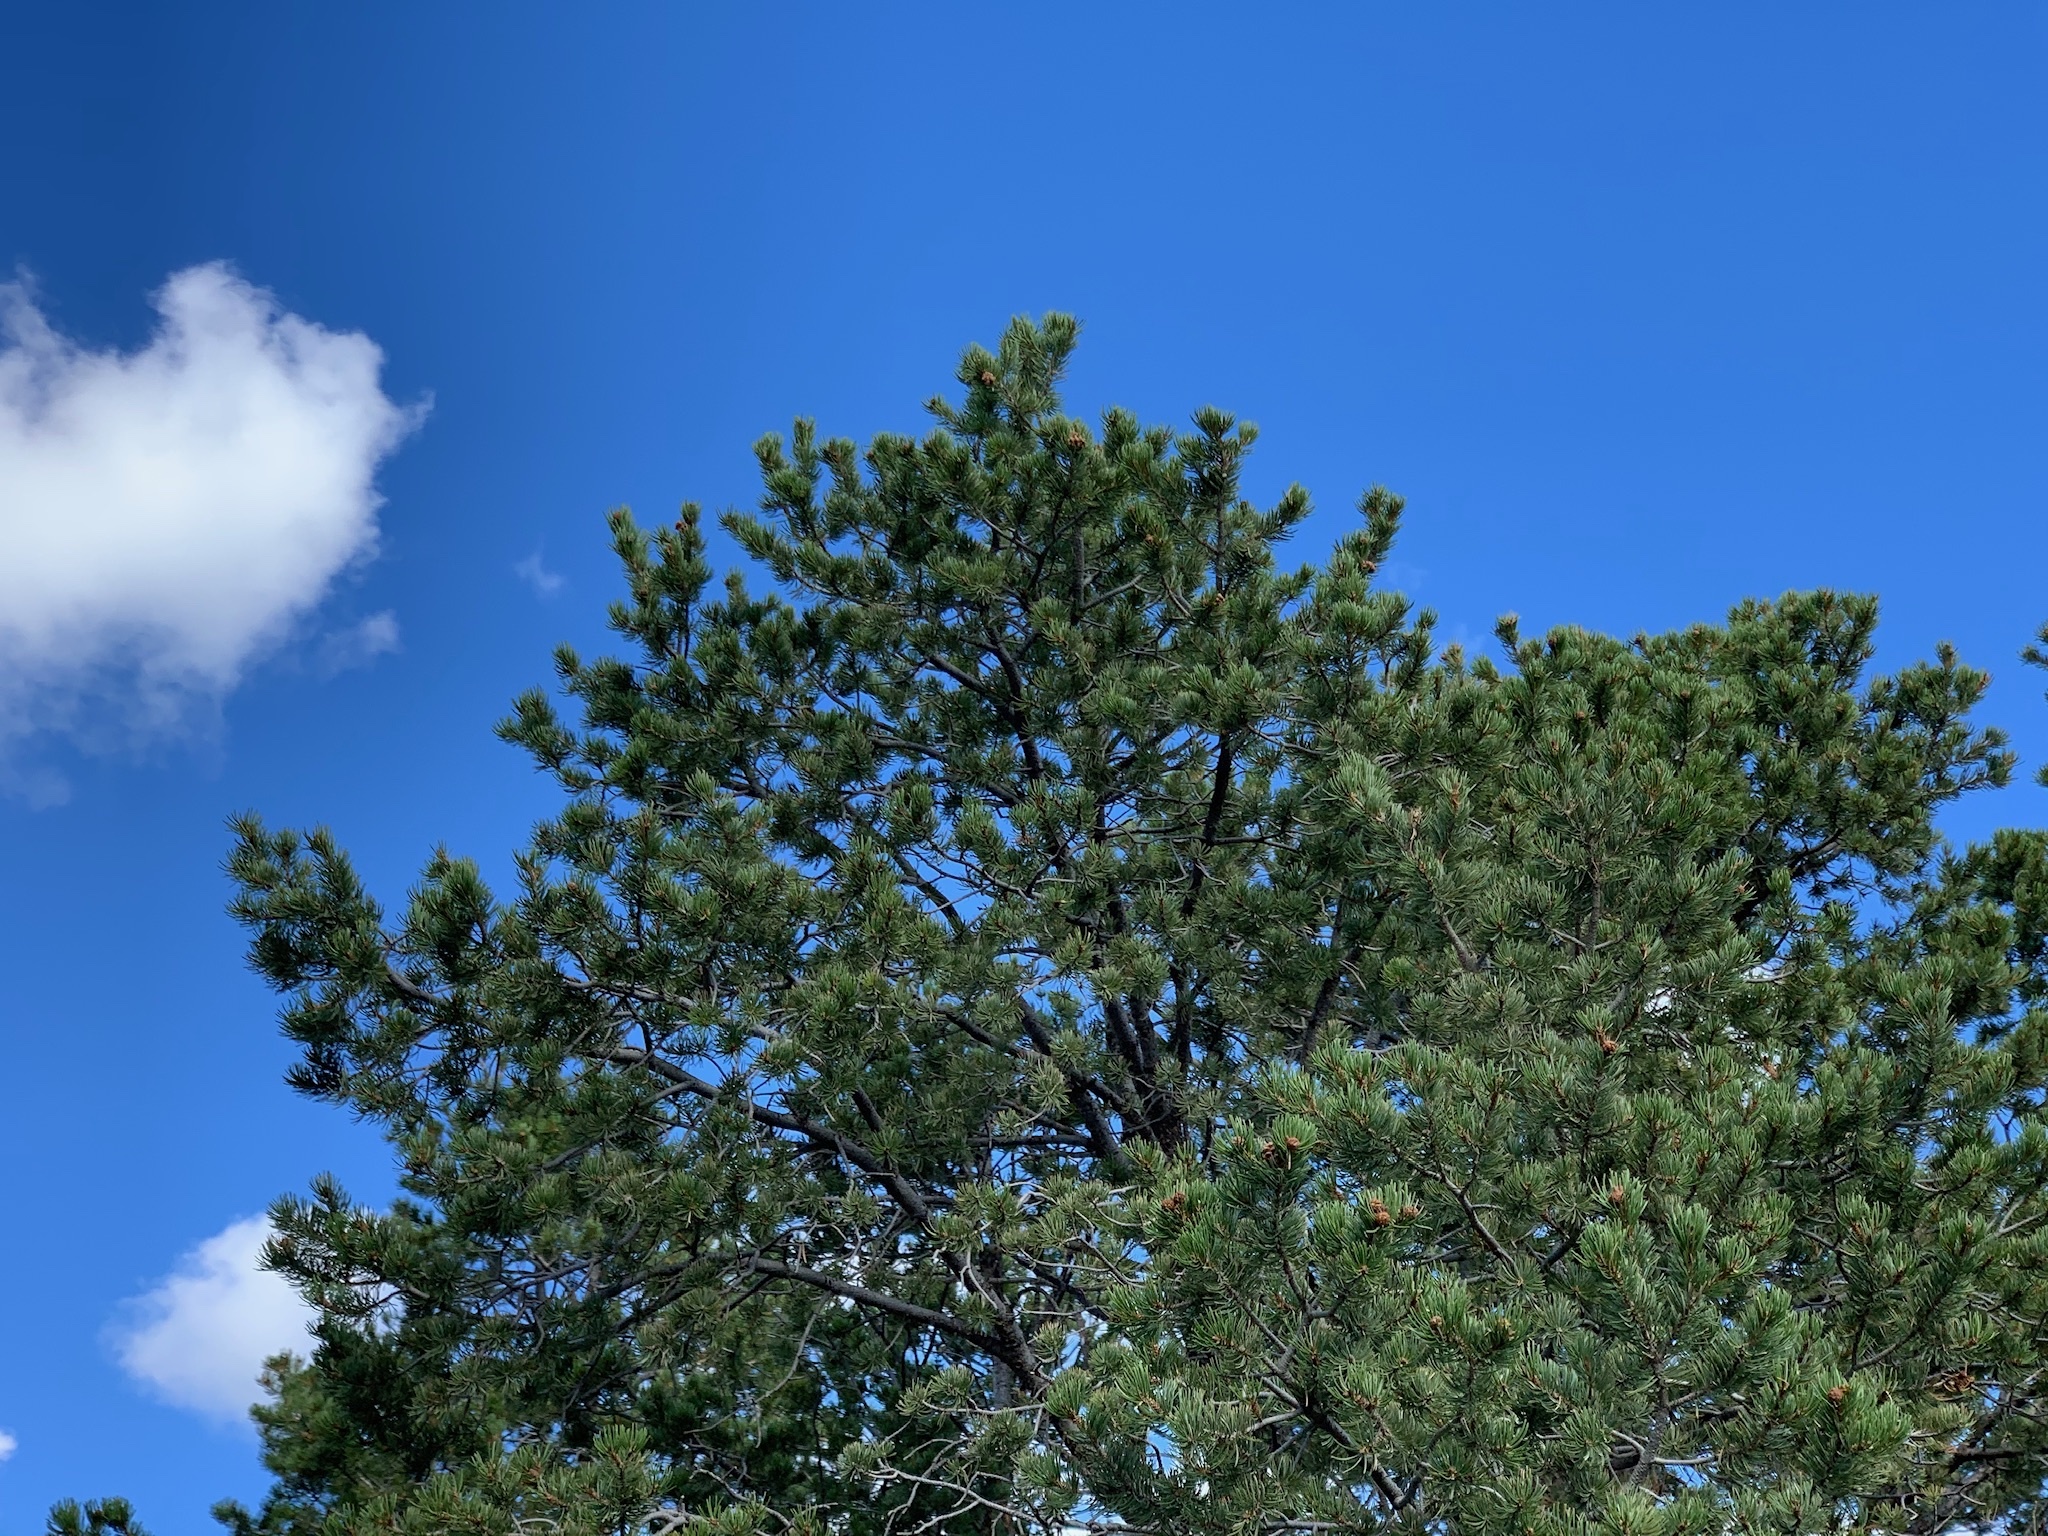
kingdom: Plantae
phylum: Tracheophyta
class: Pinopsida
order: Pinales
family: Pinaceae
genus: Pinus
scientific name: Pinus strobiformis
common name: Southwestern white pine
